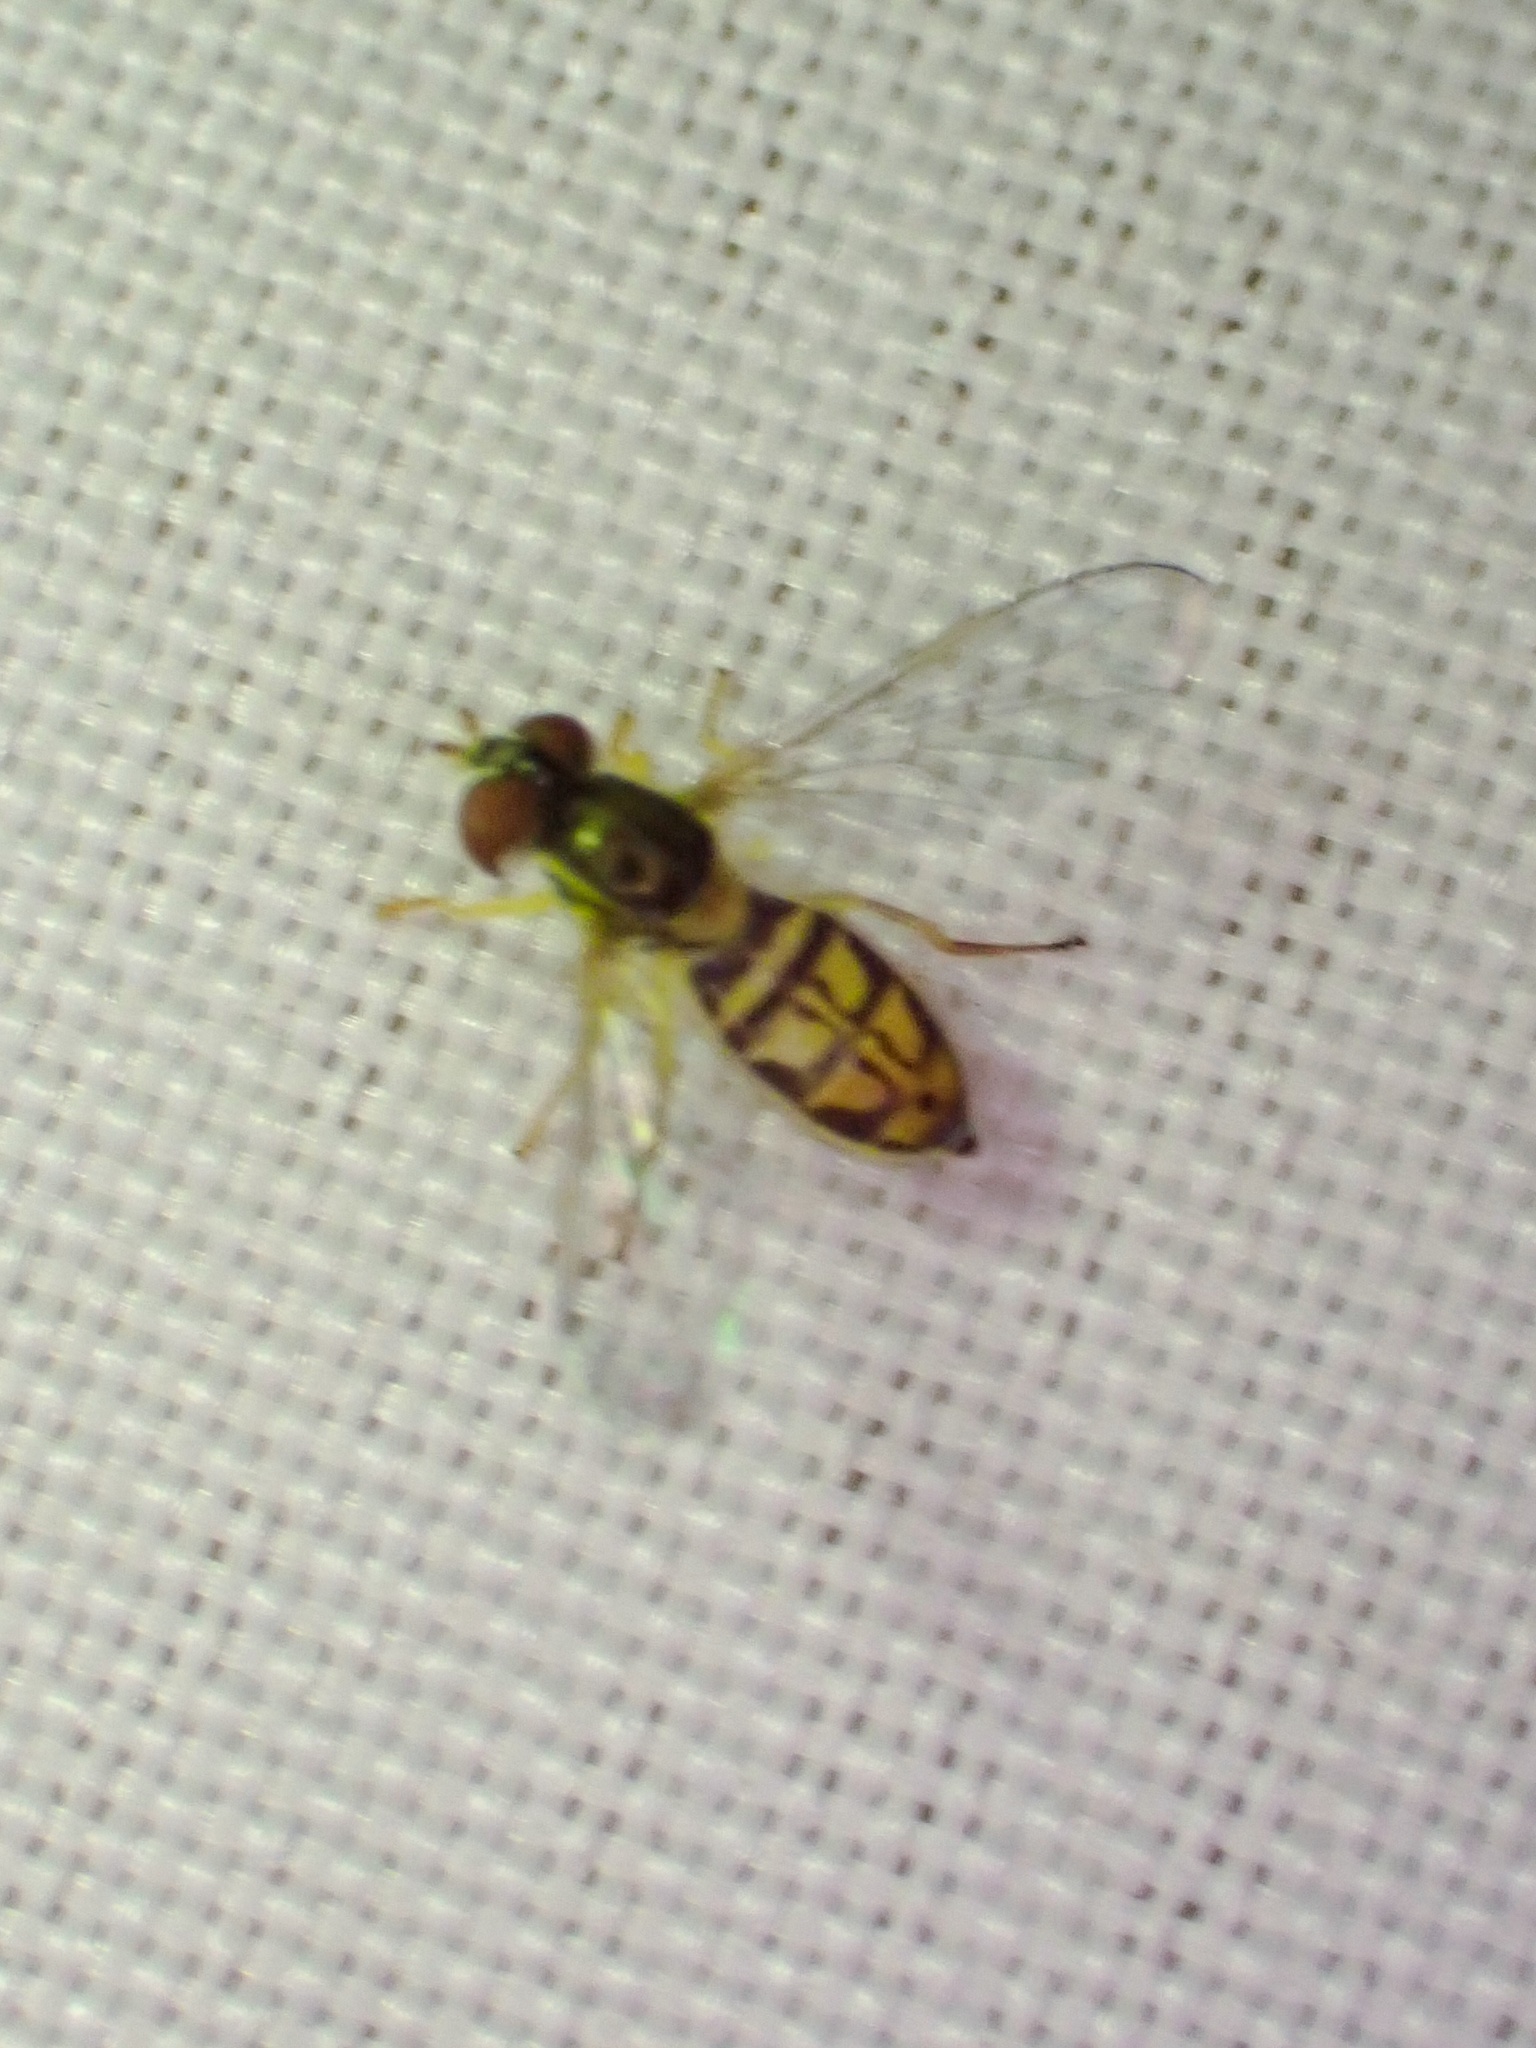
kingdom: Animalia
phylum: Arthropoda
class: Insecta
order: Diptera
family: Syrphidae
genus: Toxomerus
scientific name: Toxomerus marginatus
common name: Syrphid fly
